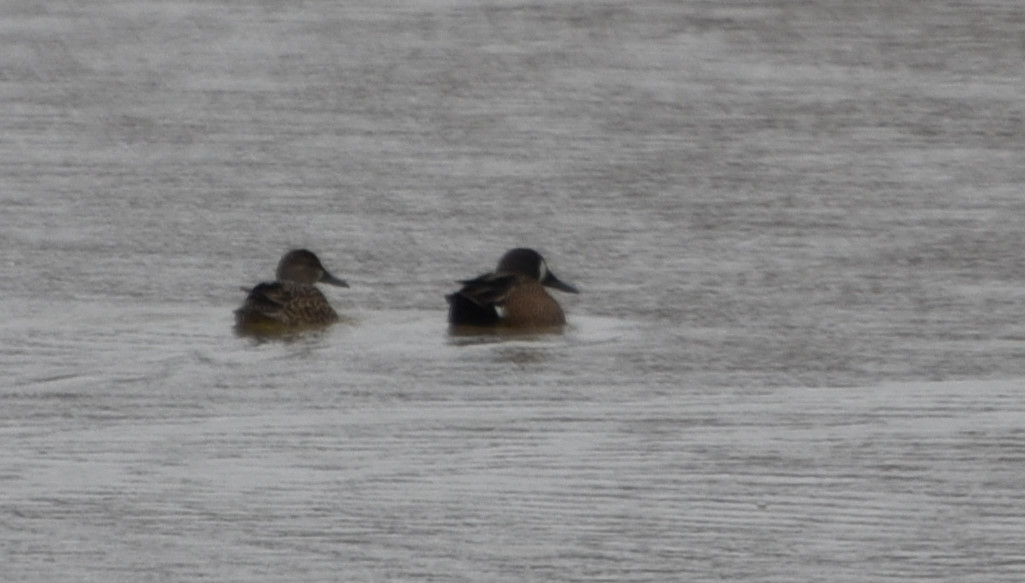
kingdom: Animalia
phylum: Chordata
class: Aves
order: Anseriformes
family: Anatidae
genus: Spatula
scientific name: Spatula discors
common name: Blue-winged teal
